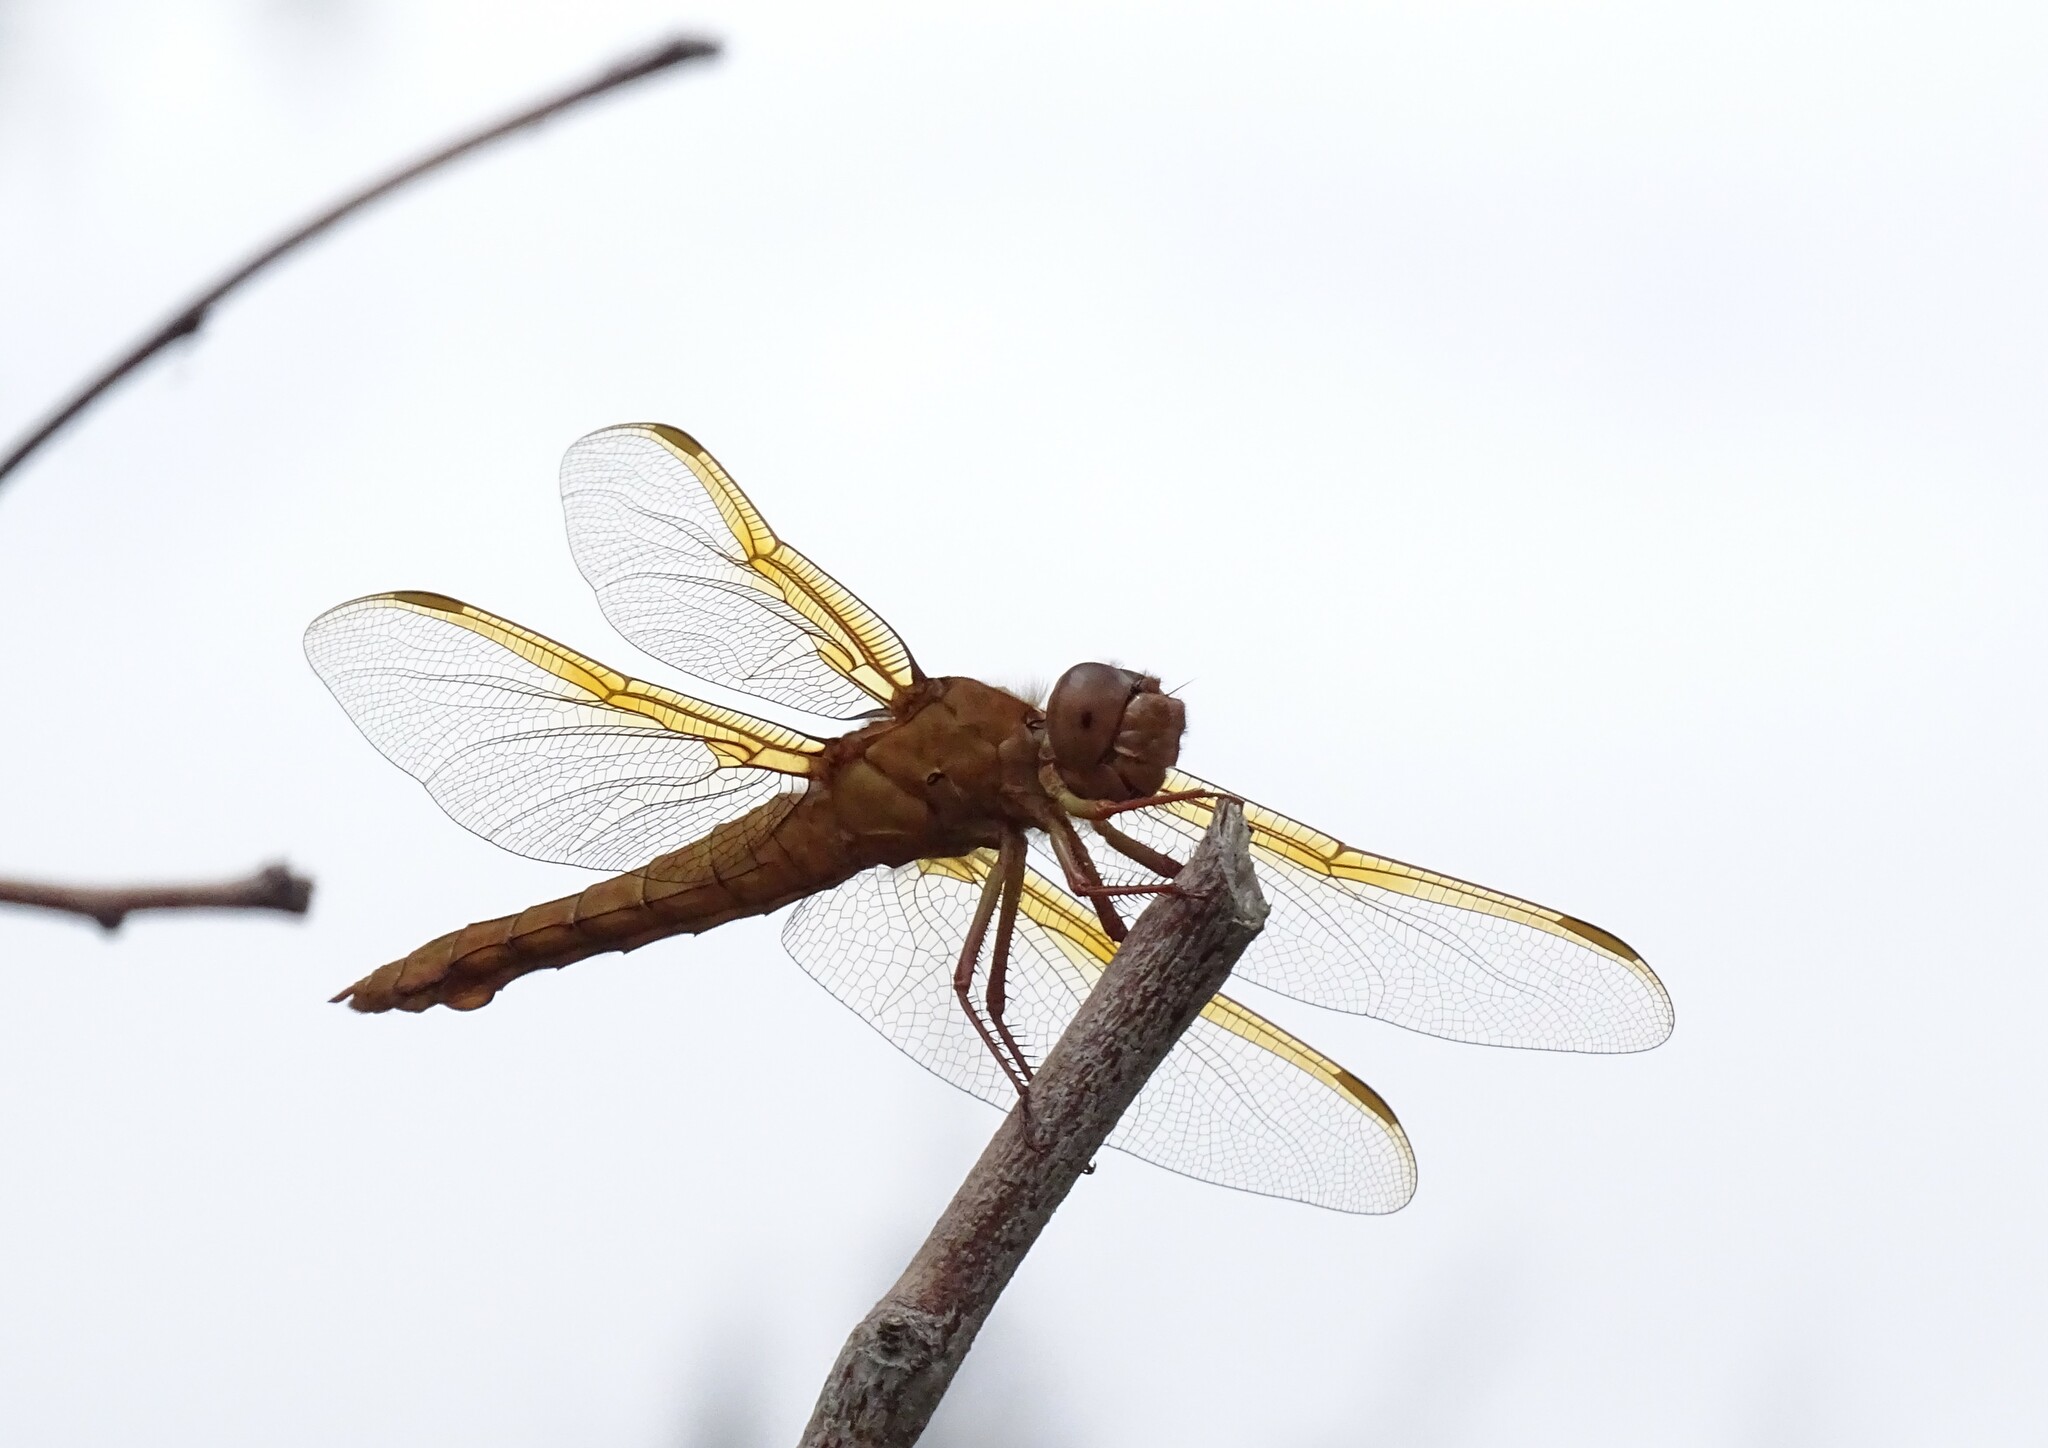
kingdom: Animalia
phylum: Arthropoda
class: Insecta
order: Odonata
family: Libellulidae
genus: Libellula
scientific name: Libellula saturata
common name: Flame skimmer
